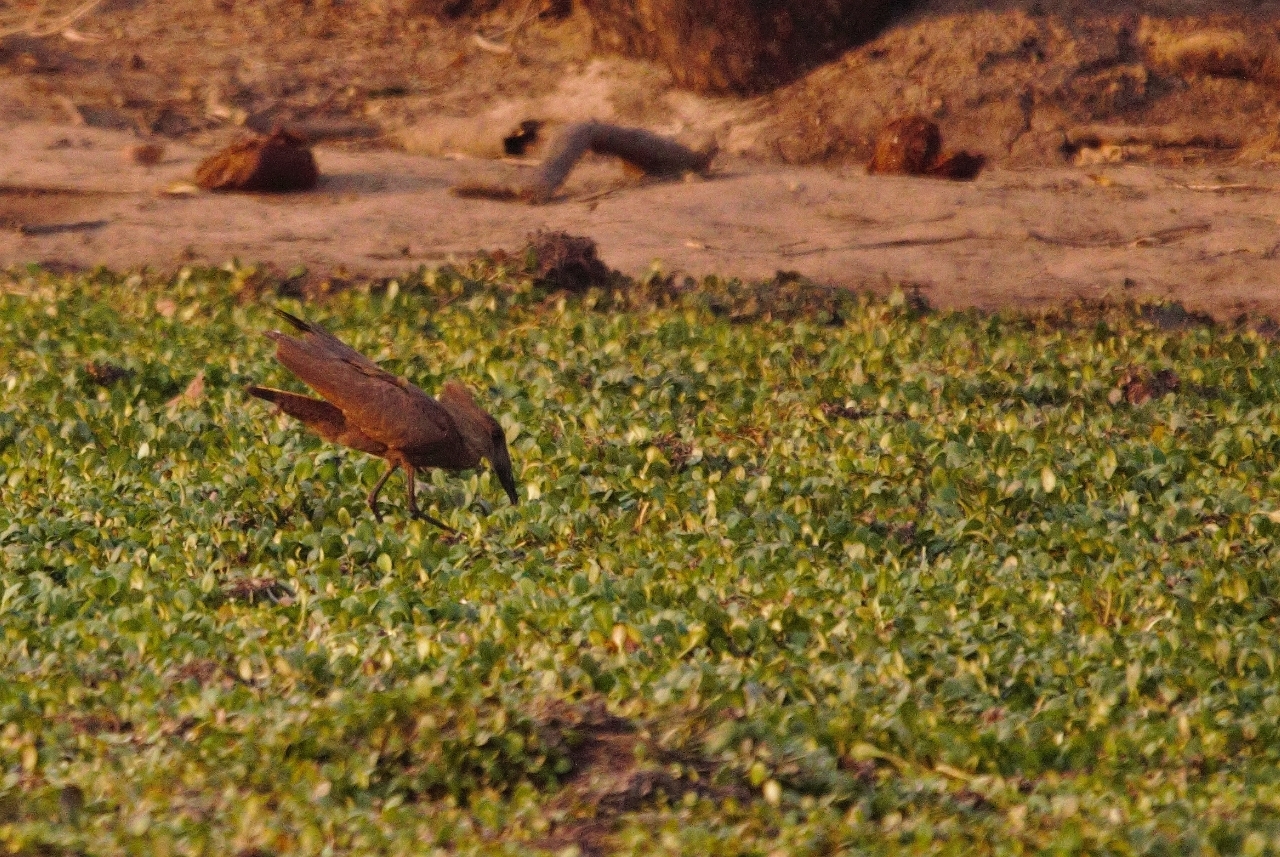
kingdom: Animalia
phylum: Chordata
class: Aves
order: Pelecaniformes
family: Scopidae
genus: Scopus
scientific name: Scopus umbretta
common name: Hamerkop
